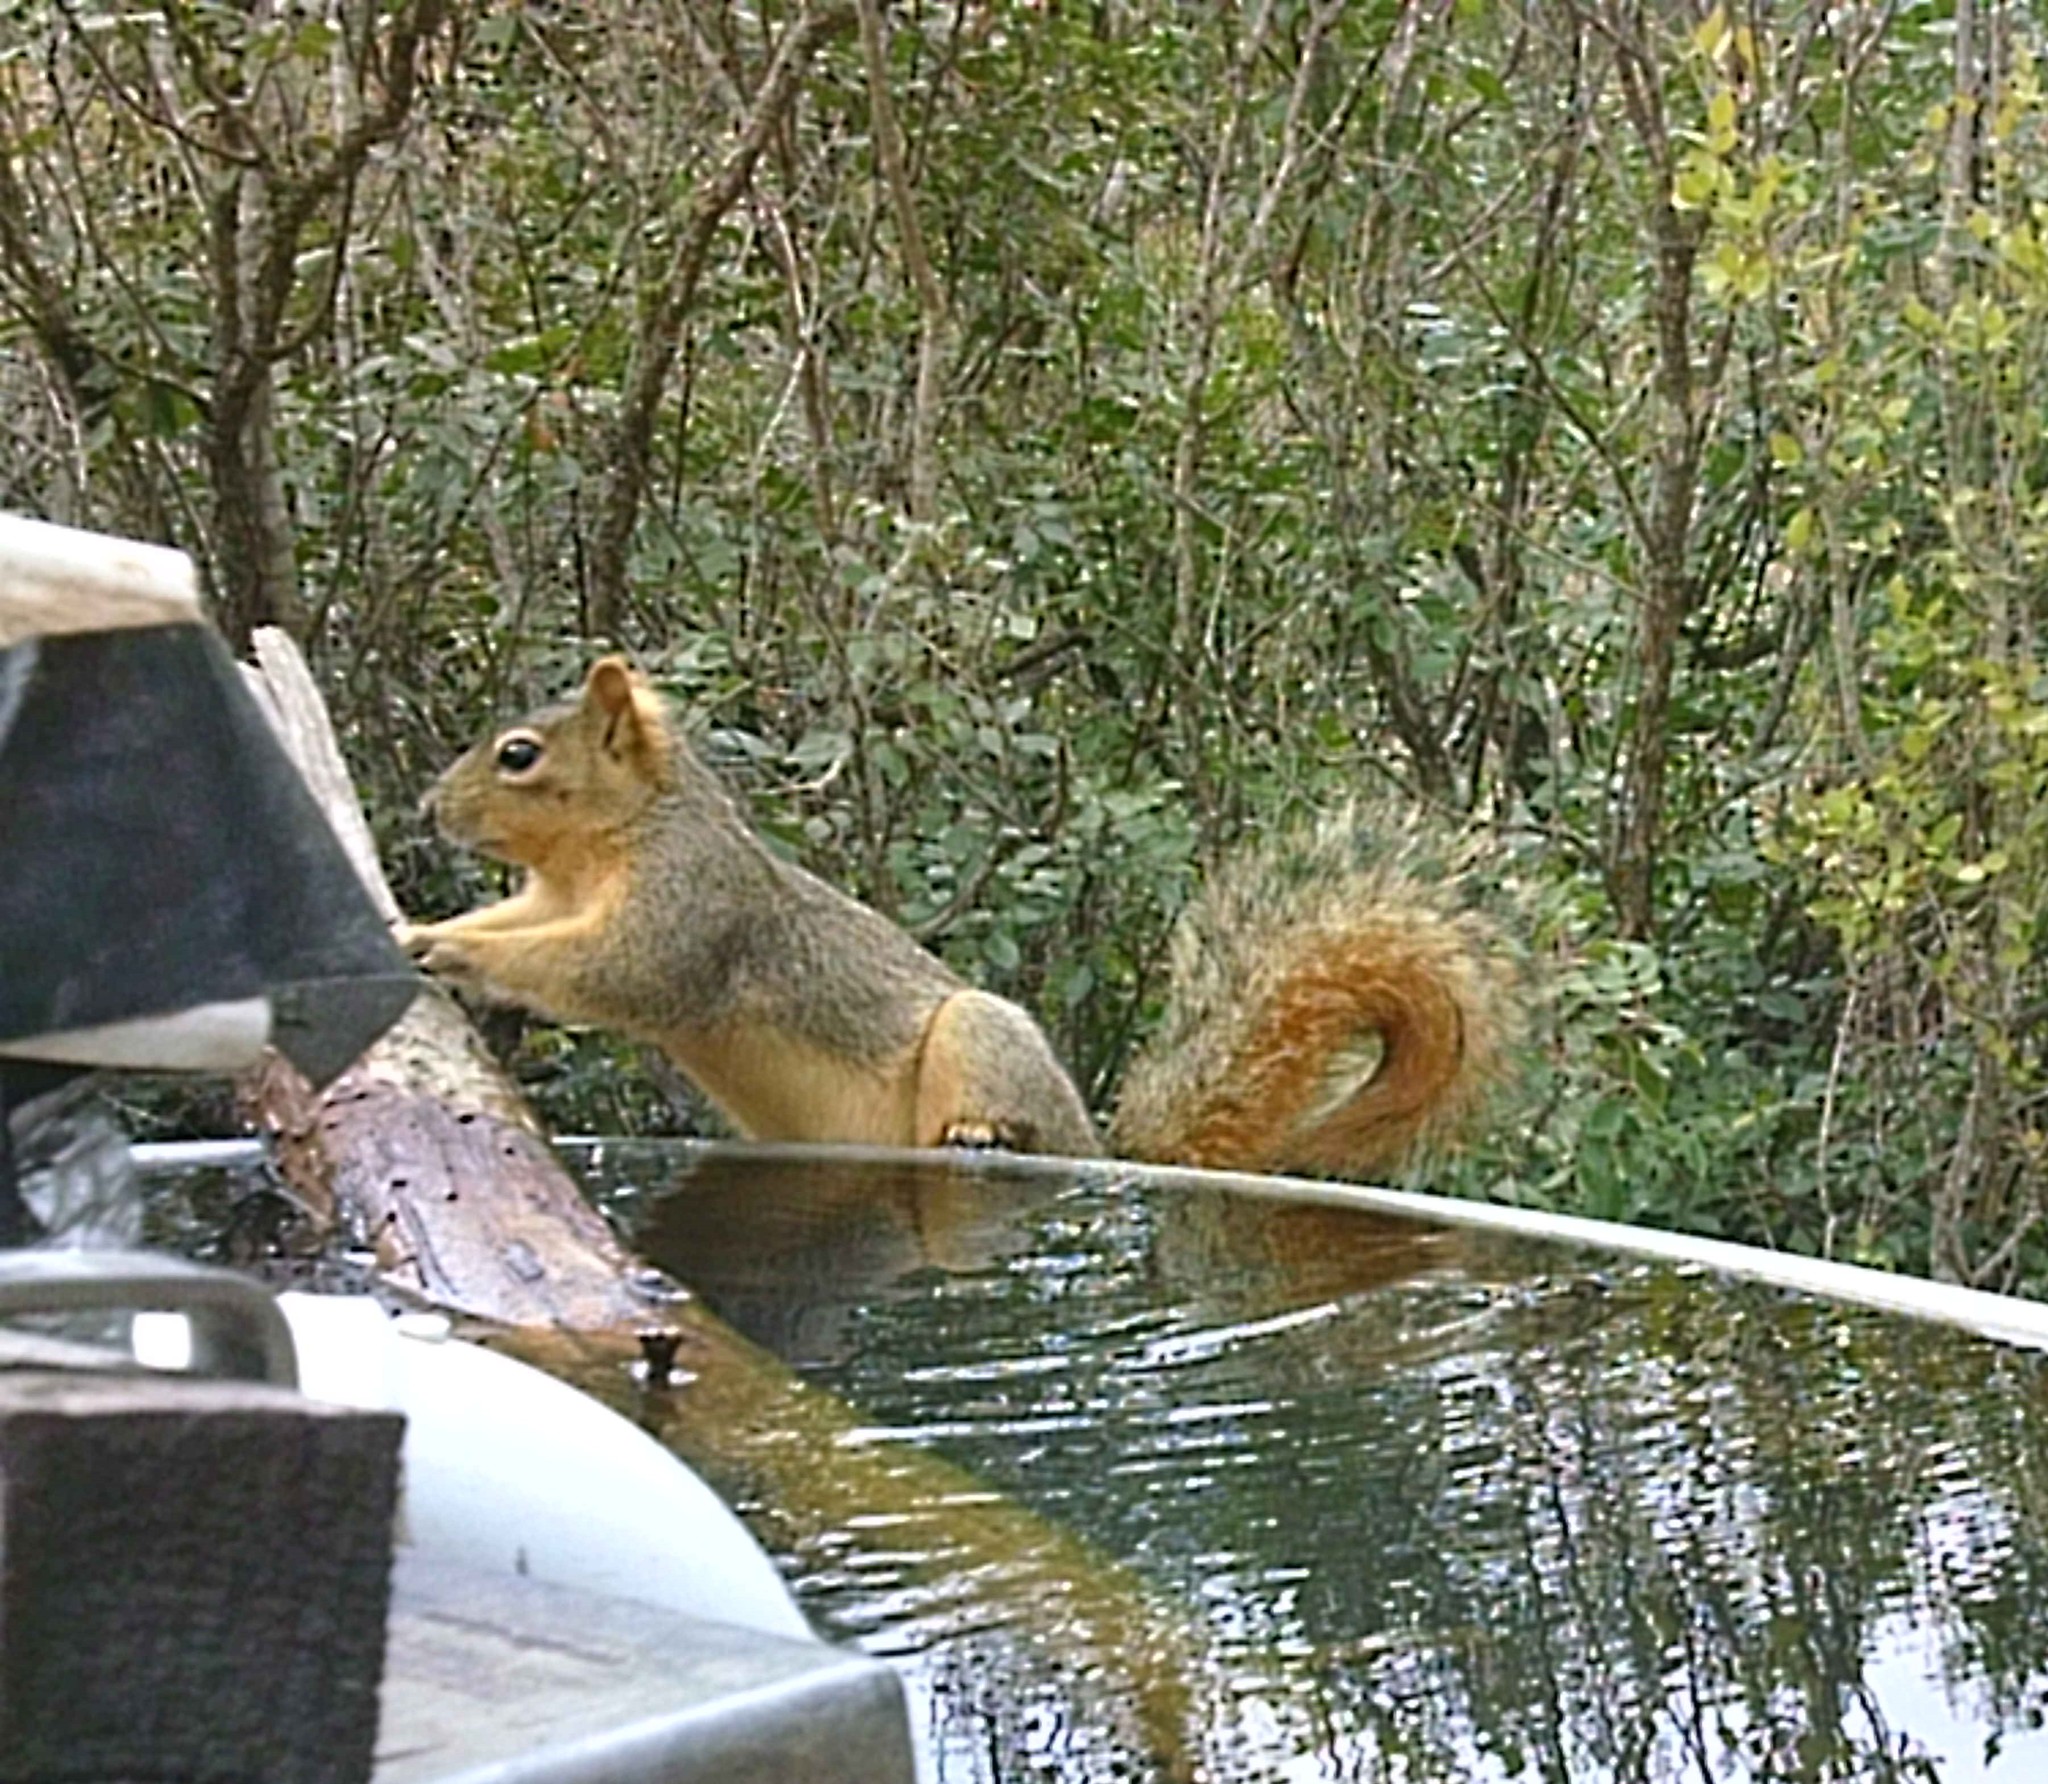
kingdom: Animalia
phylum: Chordata
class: Mammalia
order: Rodentia
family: Sciuridae
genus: Sciurus
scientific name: Sciurus niger
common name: Fox squirrel
